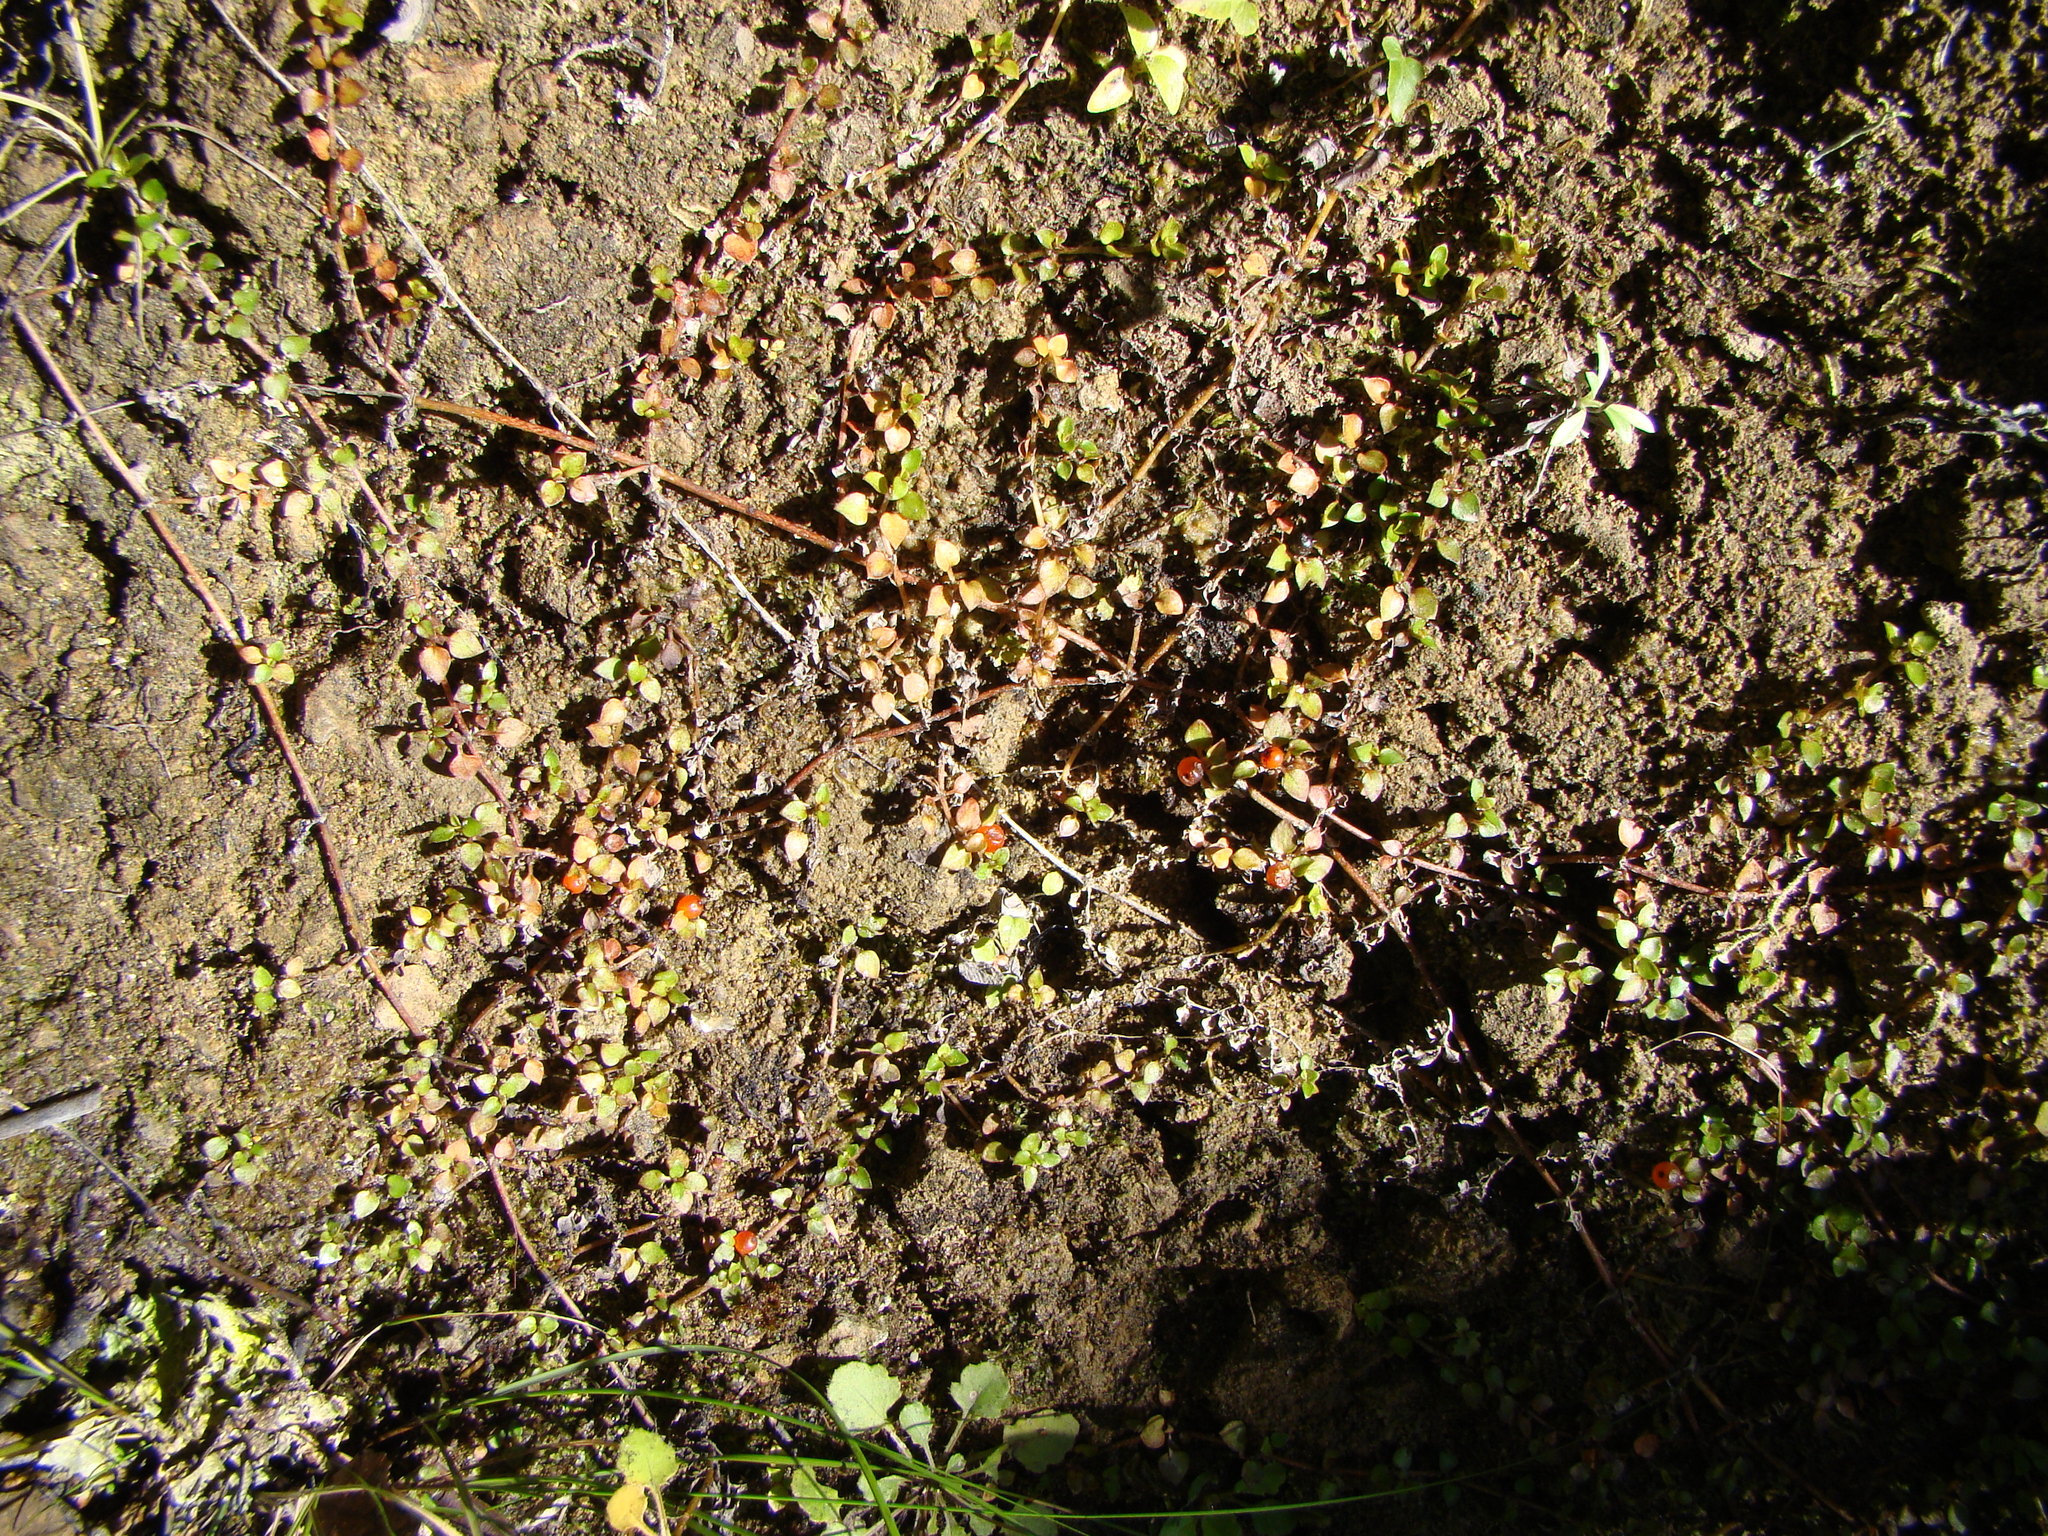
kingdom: Plantae
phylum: Tracheophyta
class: Magnoliopsida
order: Gentianales
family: Rubiaceae
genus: Nertera
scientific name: Nertera granadensis
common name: Beadplant
